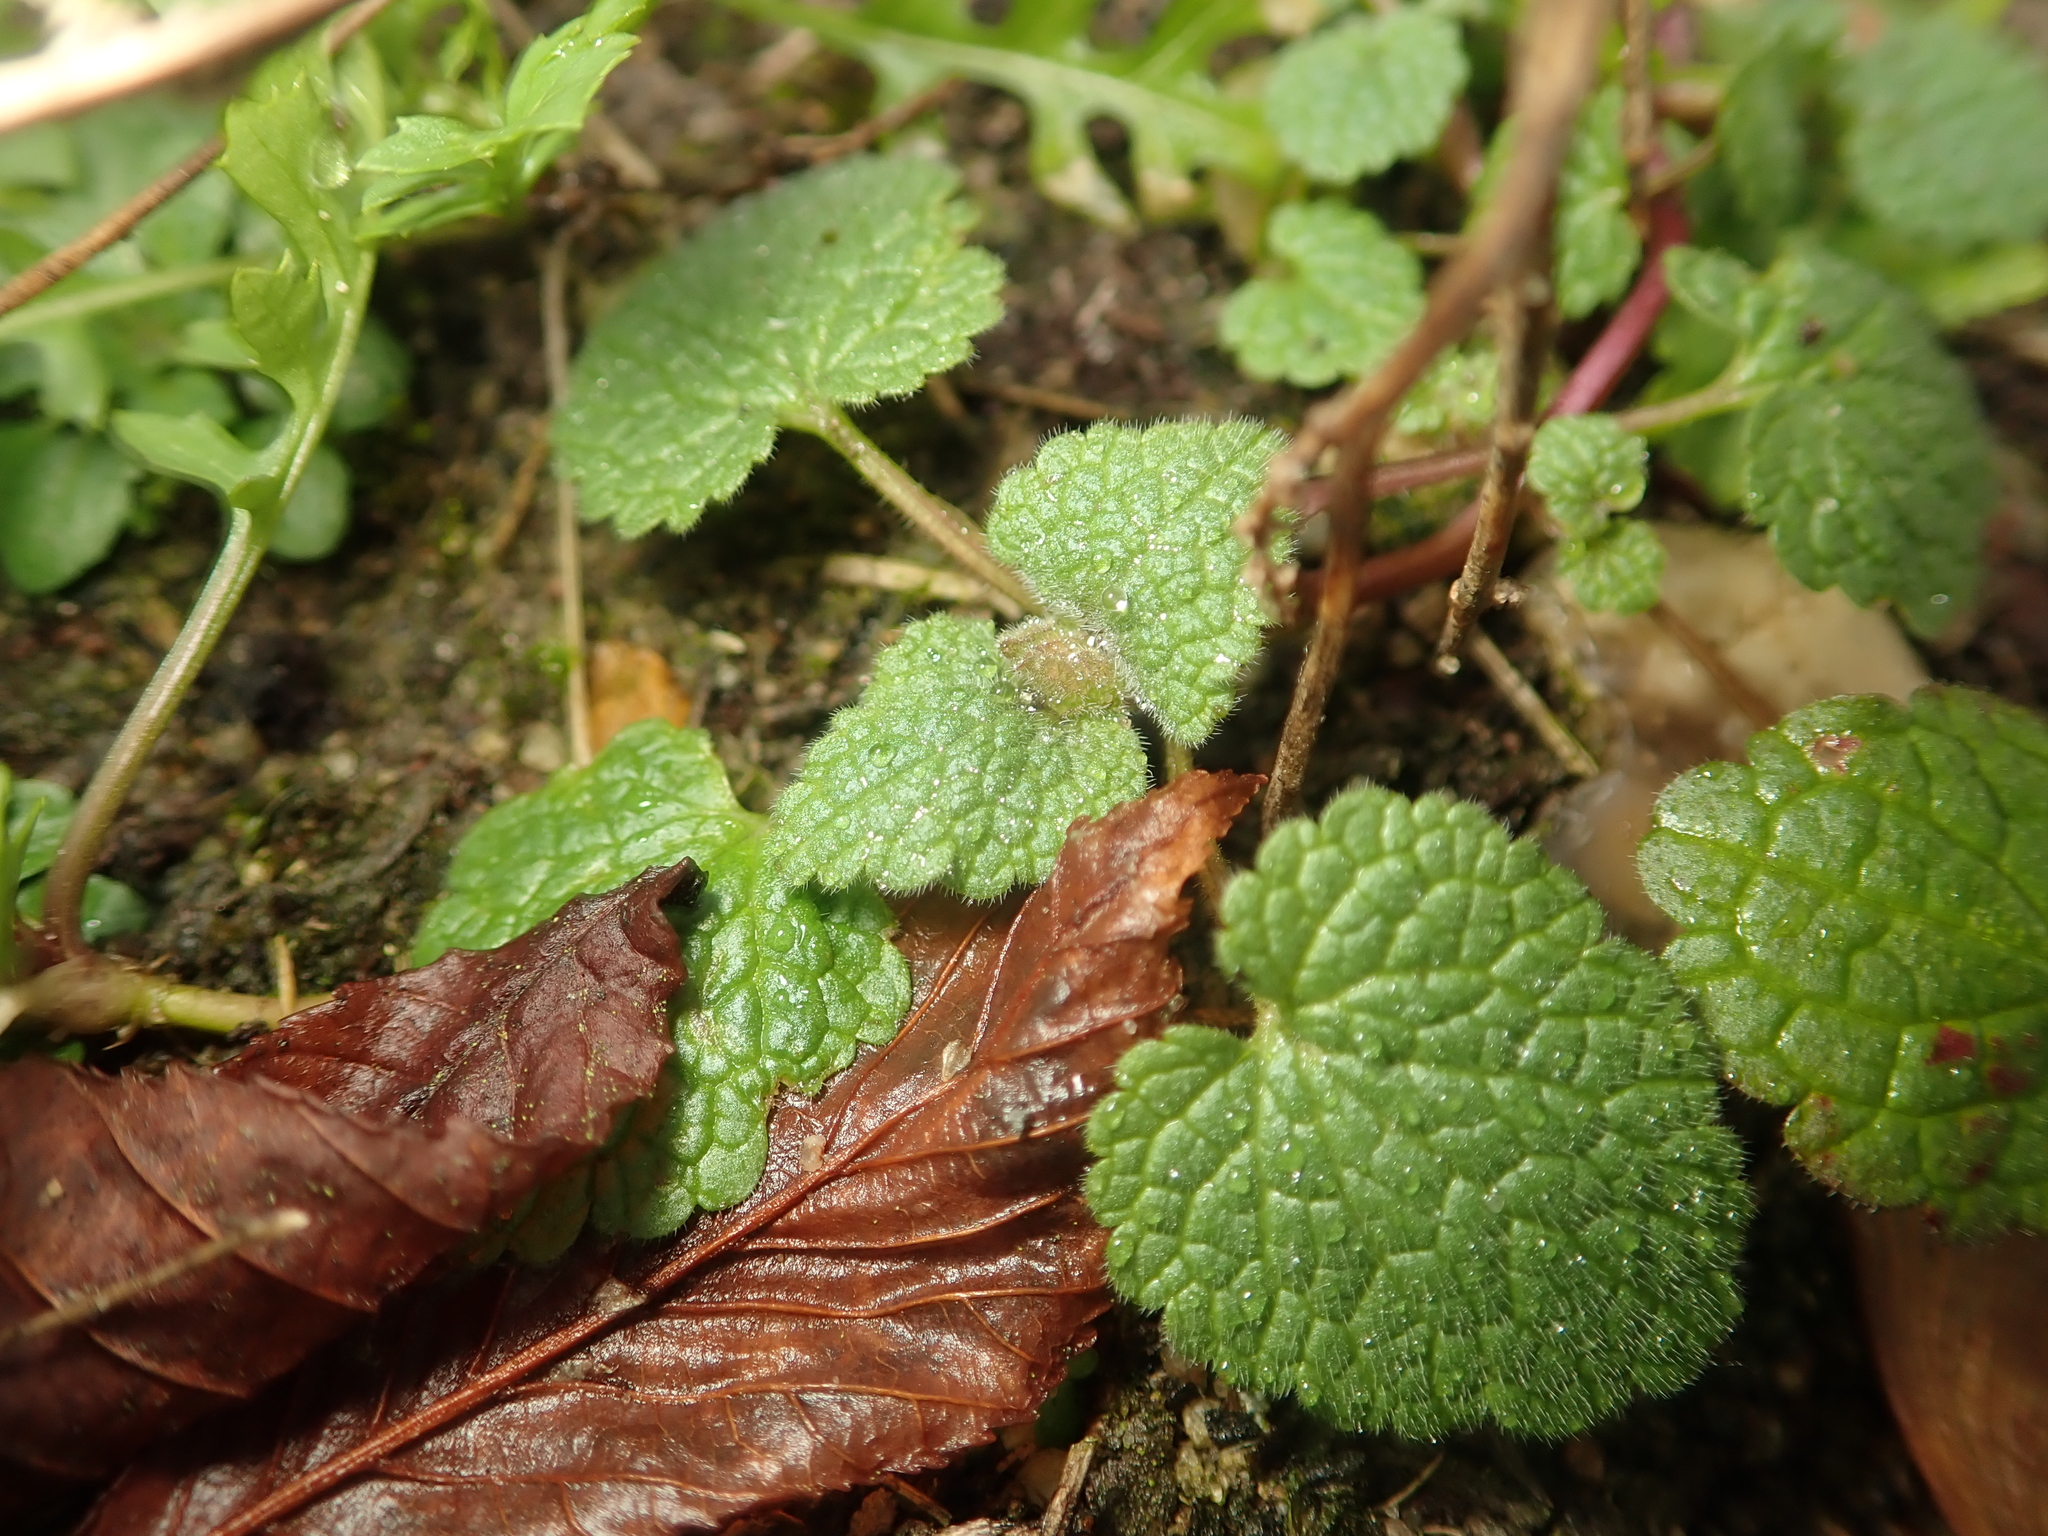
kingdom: Plantae
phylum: Tracheophyta
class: Magnoliopsida
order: Lamiales
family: Lamiaceae
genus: Lamium
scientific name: Lamium purpureum
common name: Red dead-nettle
